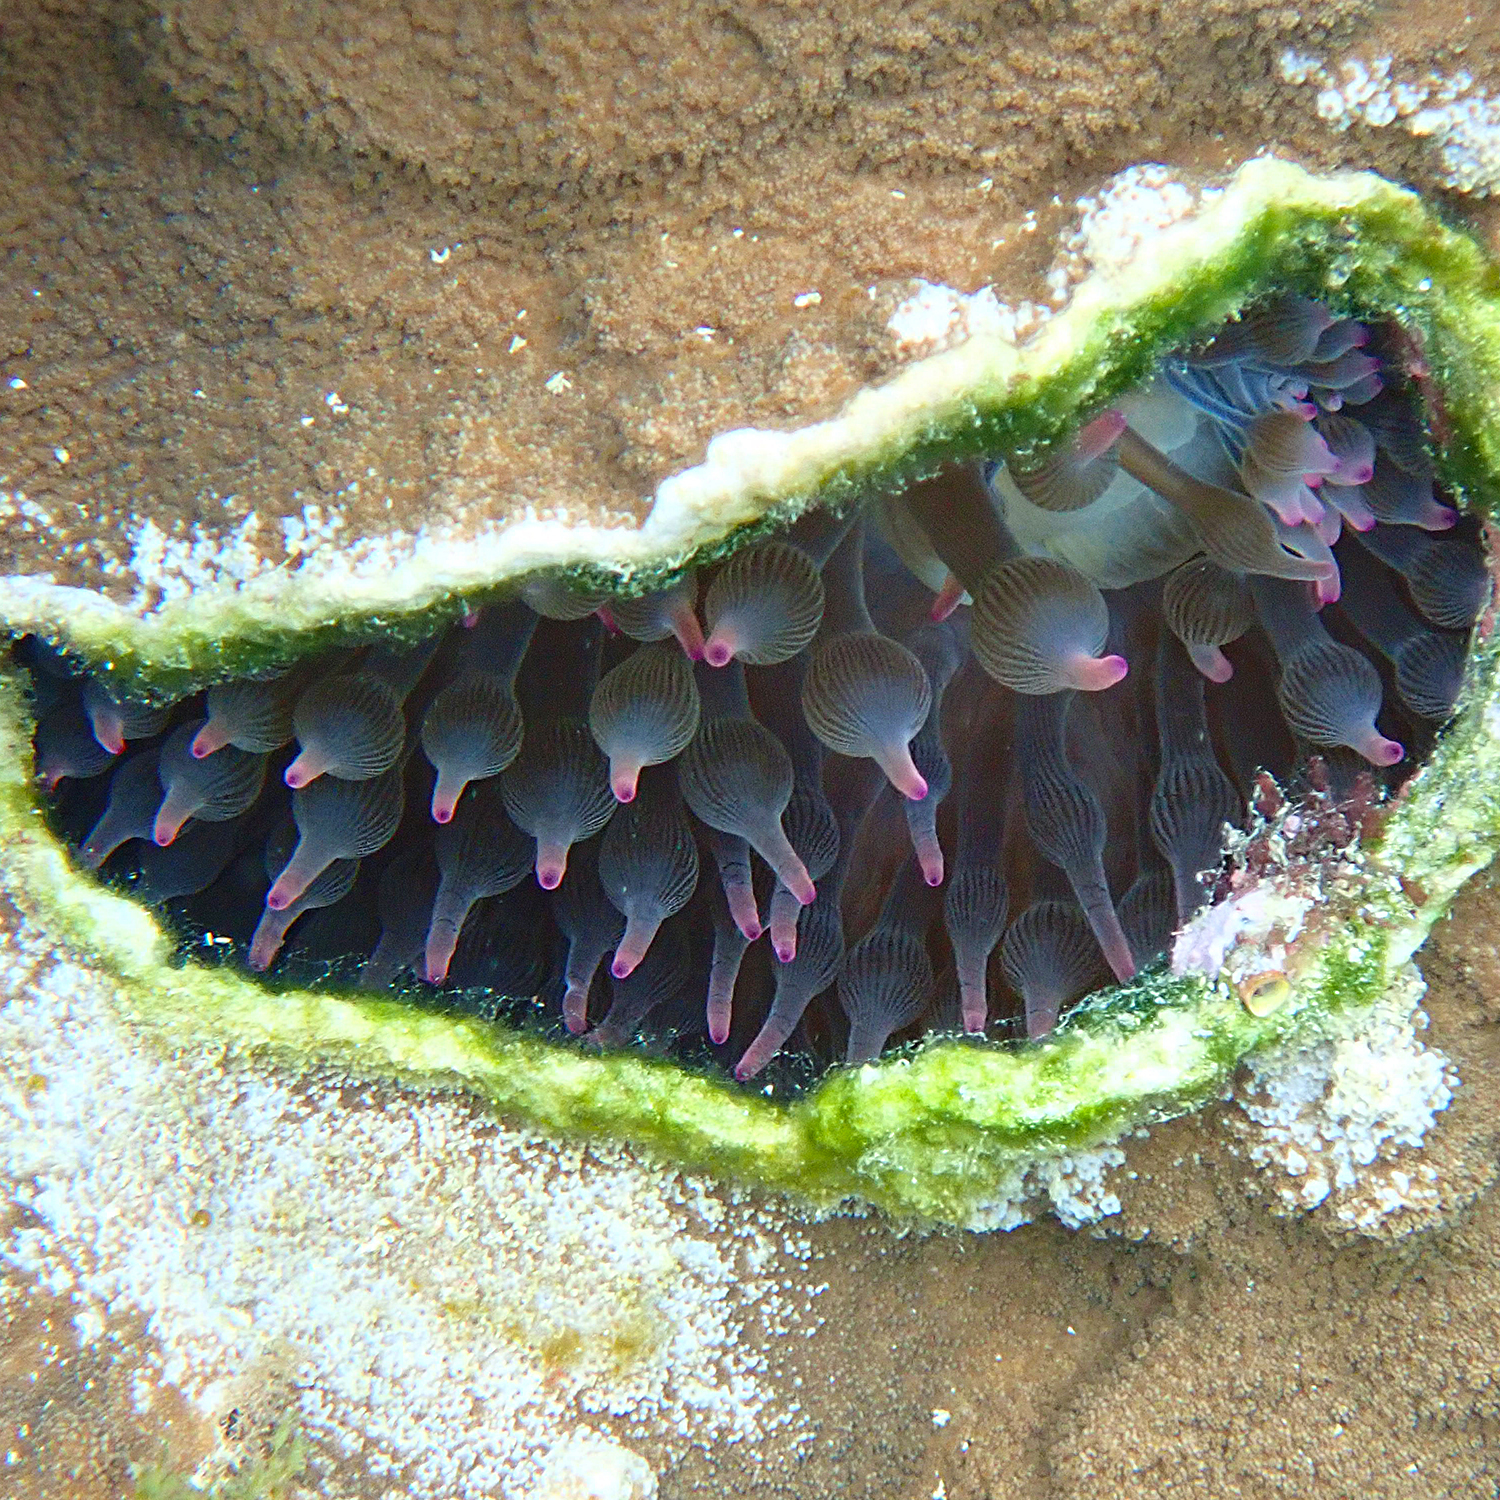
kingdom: Animalia
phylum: Cnidaria
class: Anthozoa
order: Actiniaria
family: Actiniidae
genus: Entacmaea
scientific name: Entacmaea quadricolor
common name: Bulb tentacle sea anemone
